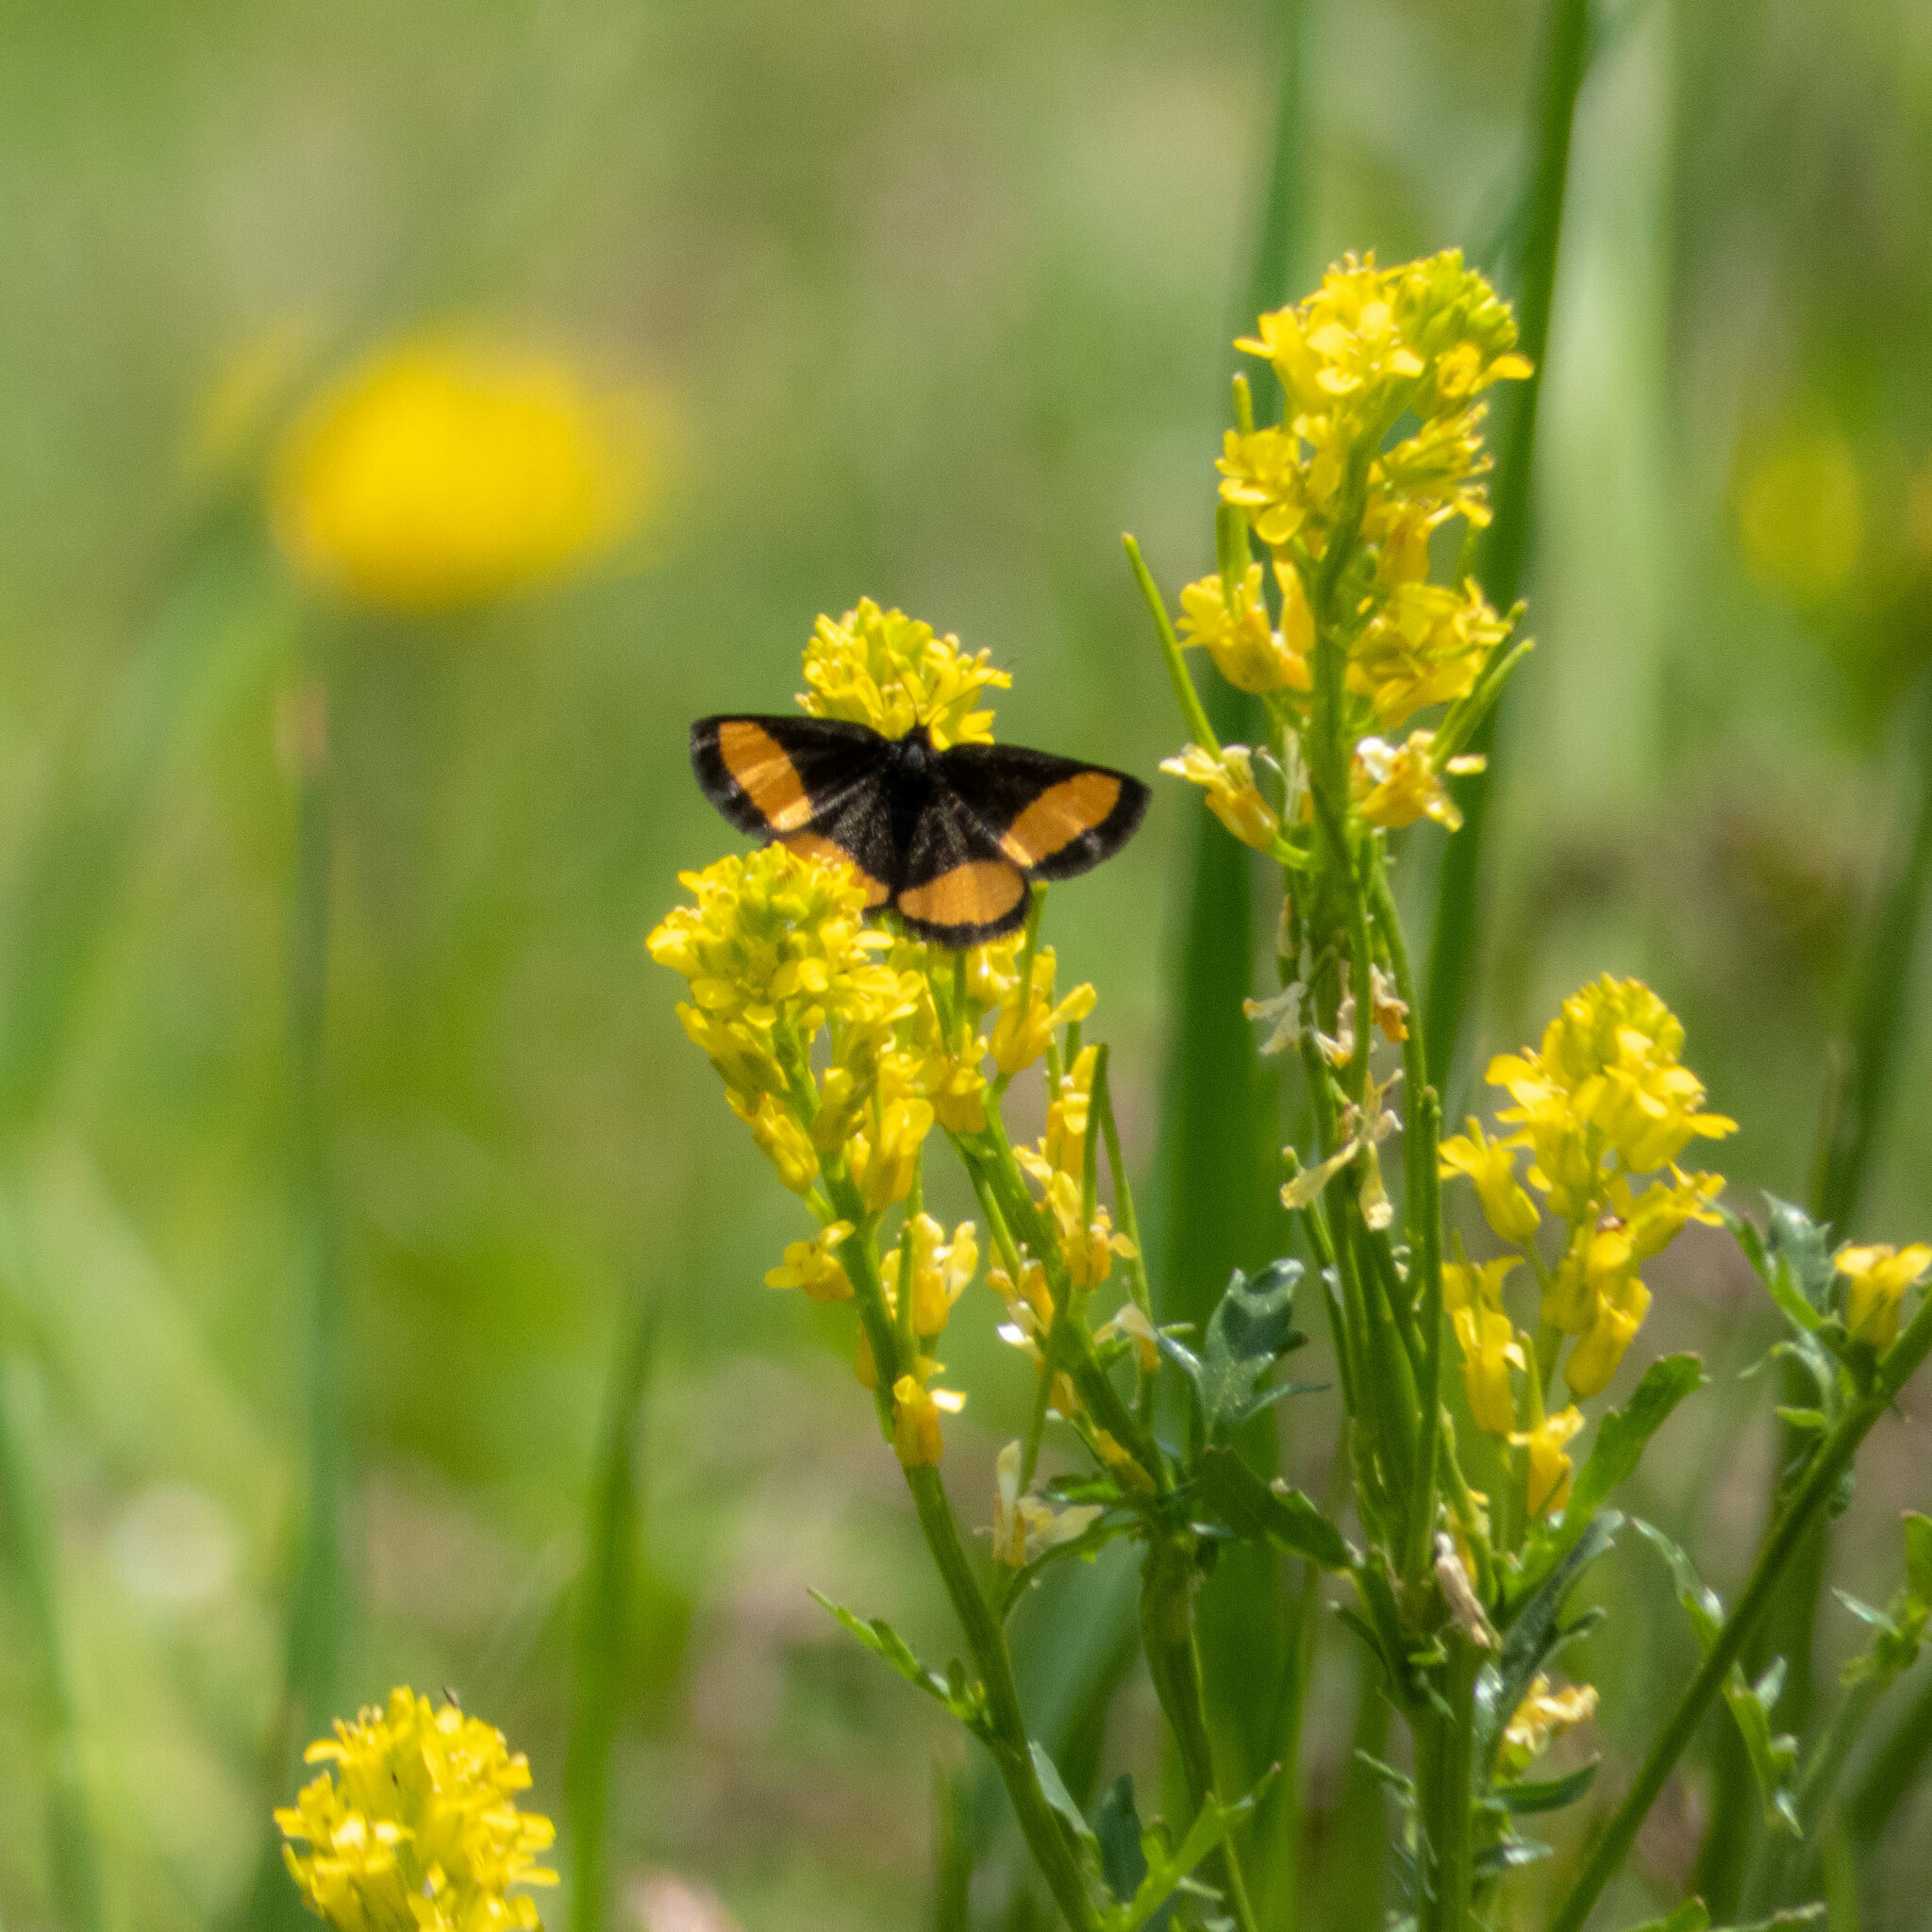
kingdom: Animalia
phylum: Arthropoda
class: Insecta
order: Lepidoptera
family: Geometridae
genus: Psodos
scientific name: Psodos quadrifaria
